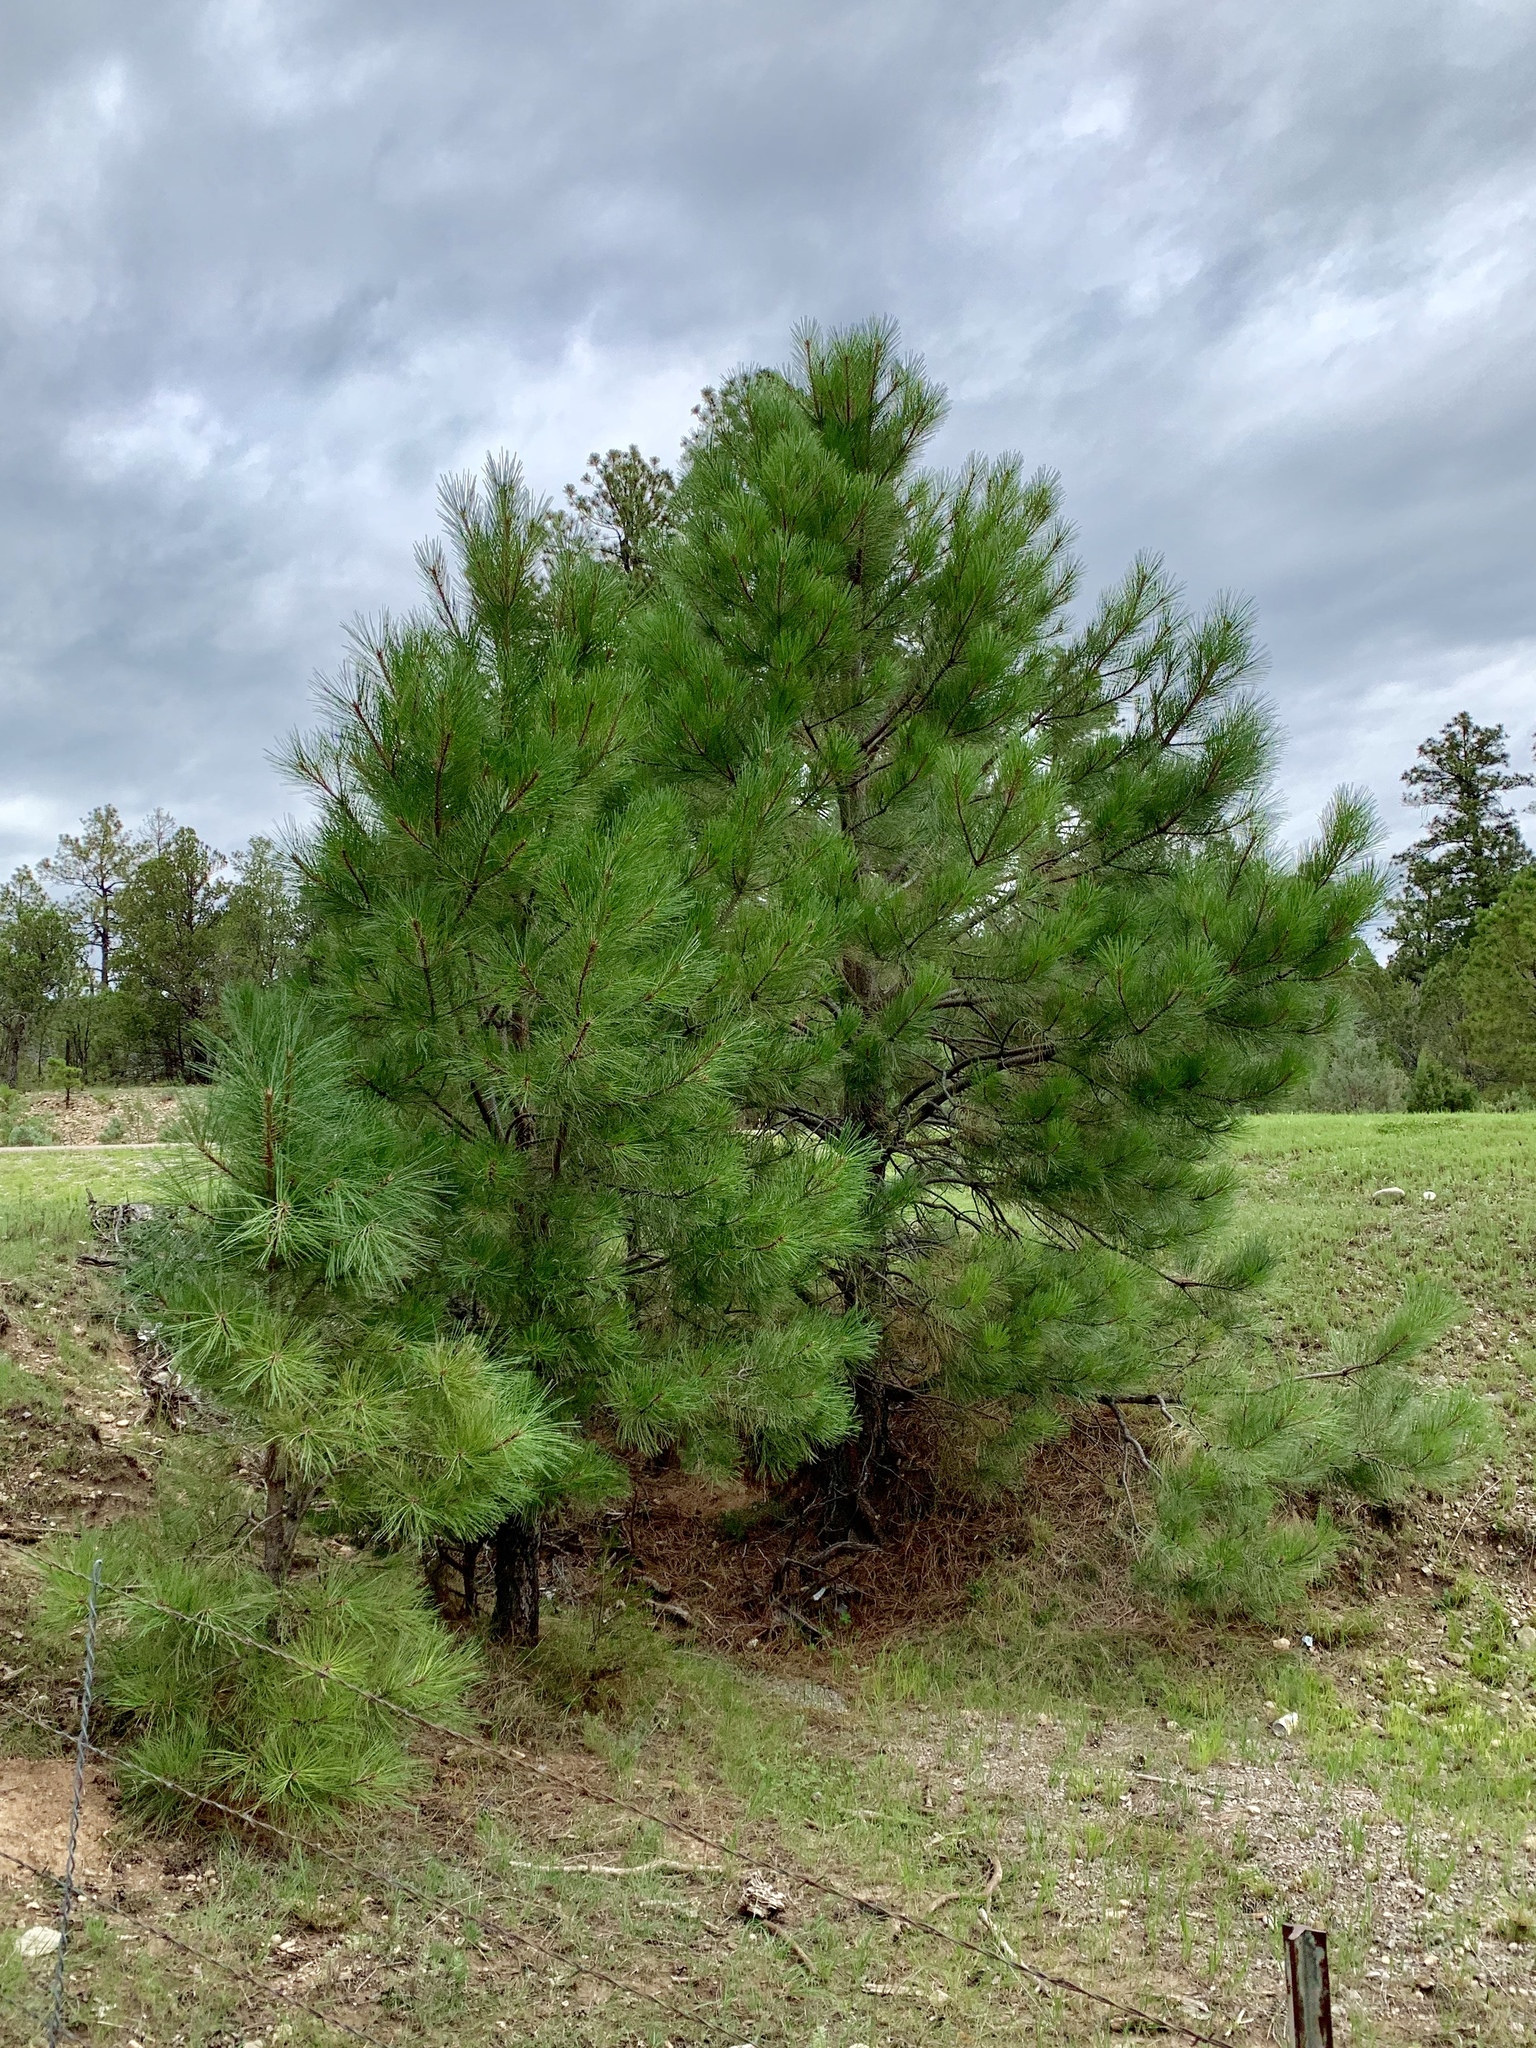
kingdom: Plantae
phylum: Tracheophyta
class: Pinopsida
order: Pinales
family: Pinaceae
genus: Pinus
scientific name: Pinus ponderosa
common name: Western yellow-pine
